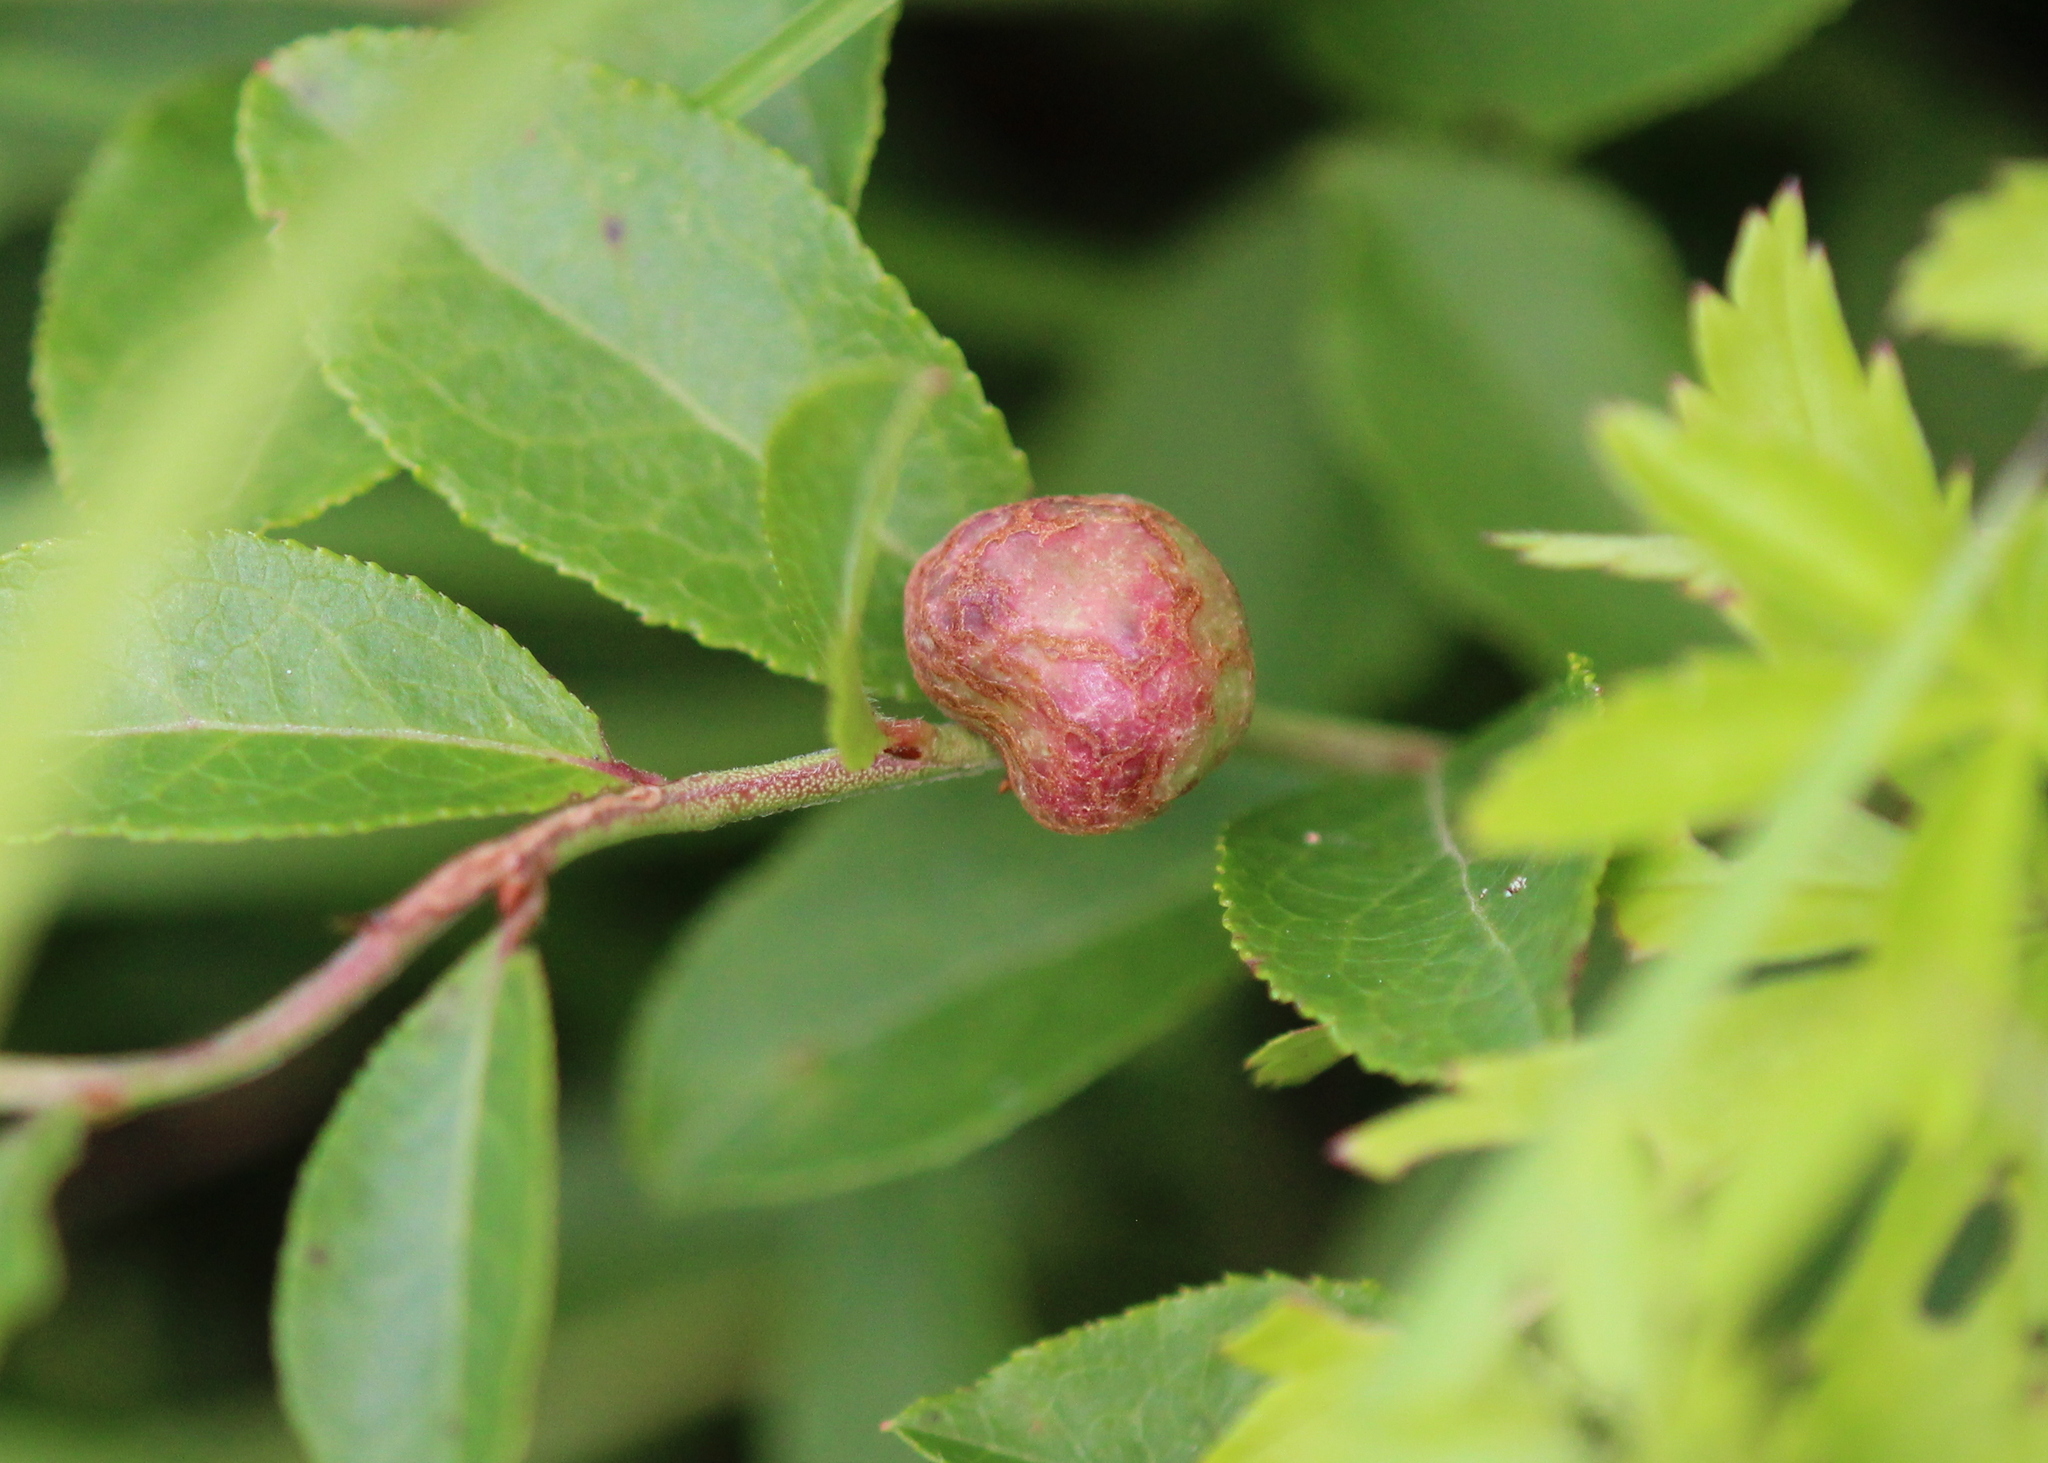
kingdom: Animalia
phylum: Arthropoda
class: Insecta
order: Hymenoptera
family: Pteromalidae
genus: Hemadas
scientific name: Hemadas nubilipennis
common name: Blueberry stem gall wasp
